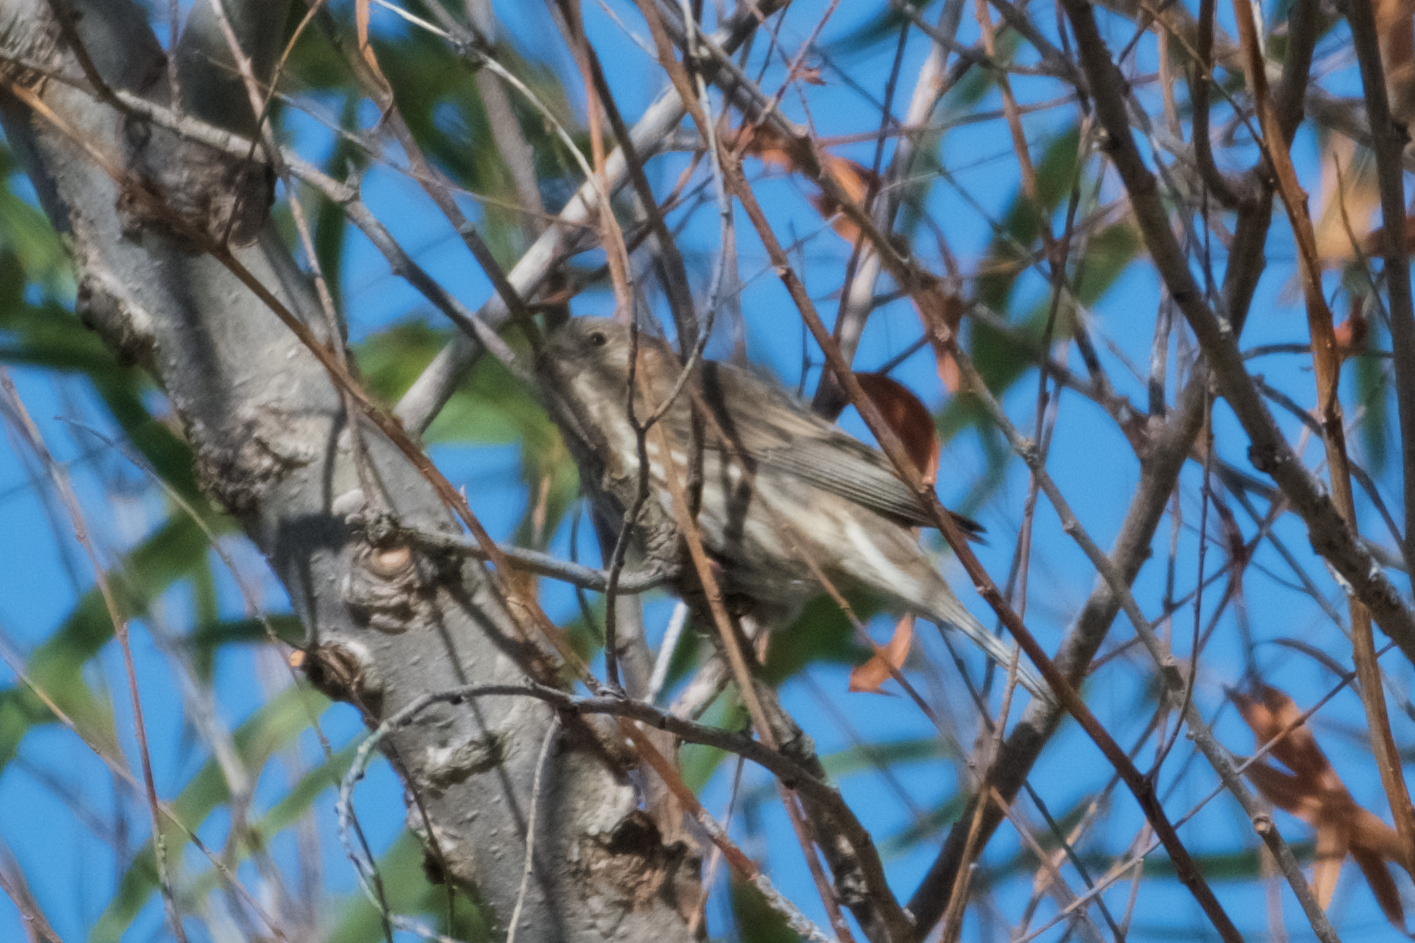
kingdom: Animalia
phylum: Chordata
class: Aves
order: Passeriformes
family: Fringillidae
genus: Haemorhous
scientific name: Haemorhous mexicanus
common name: House finch
